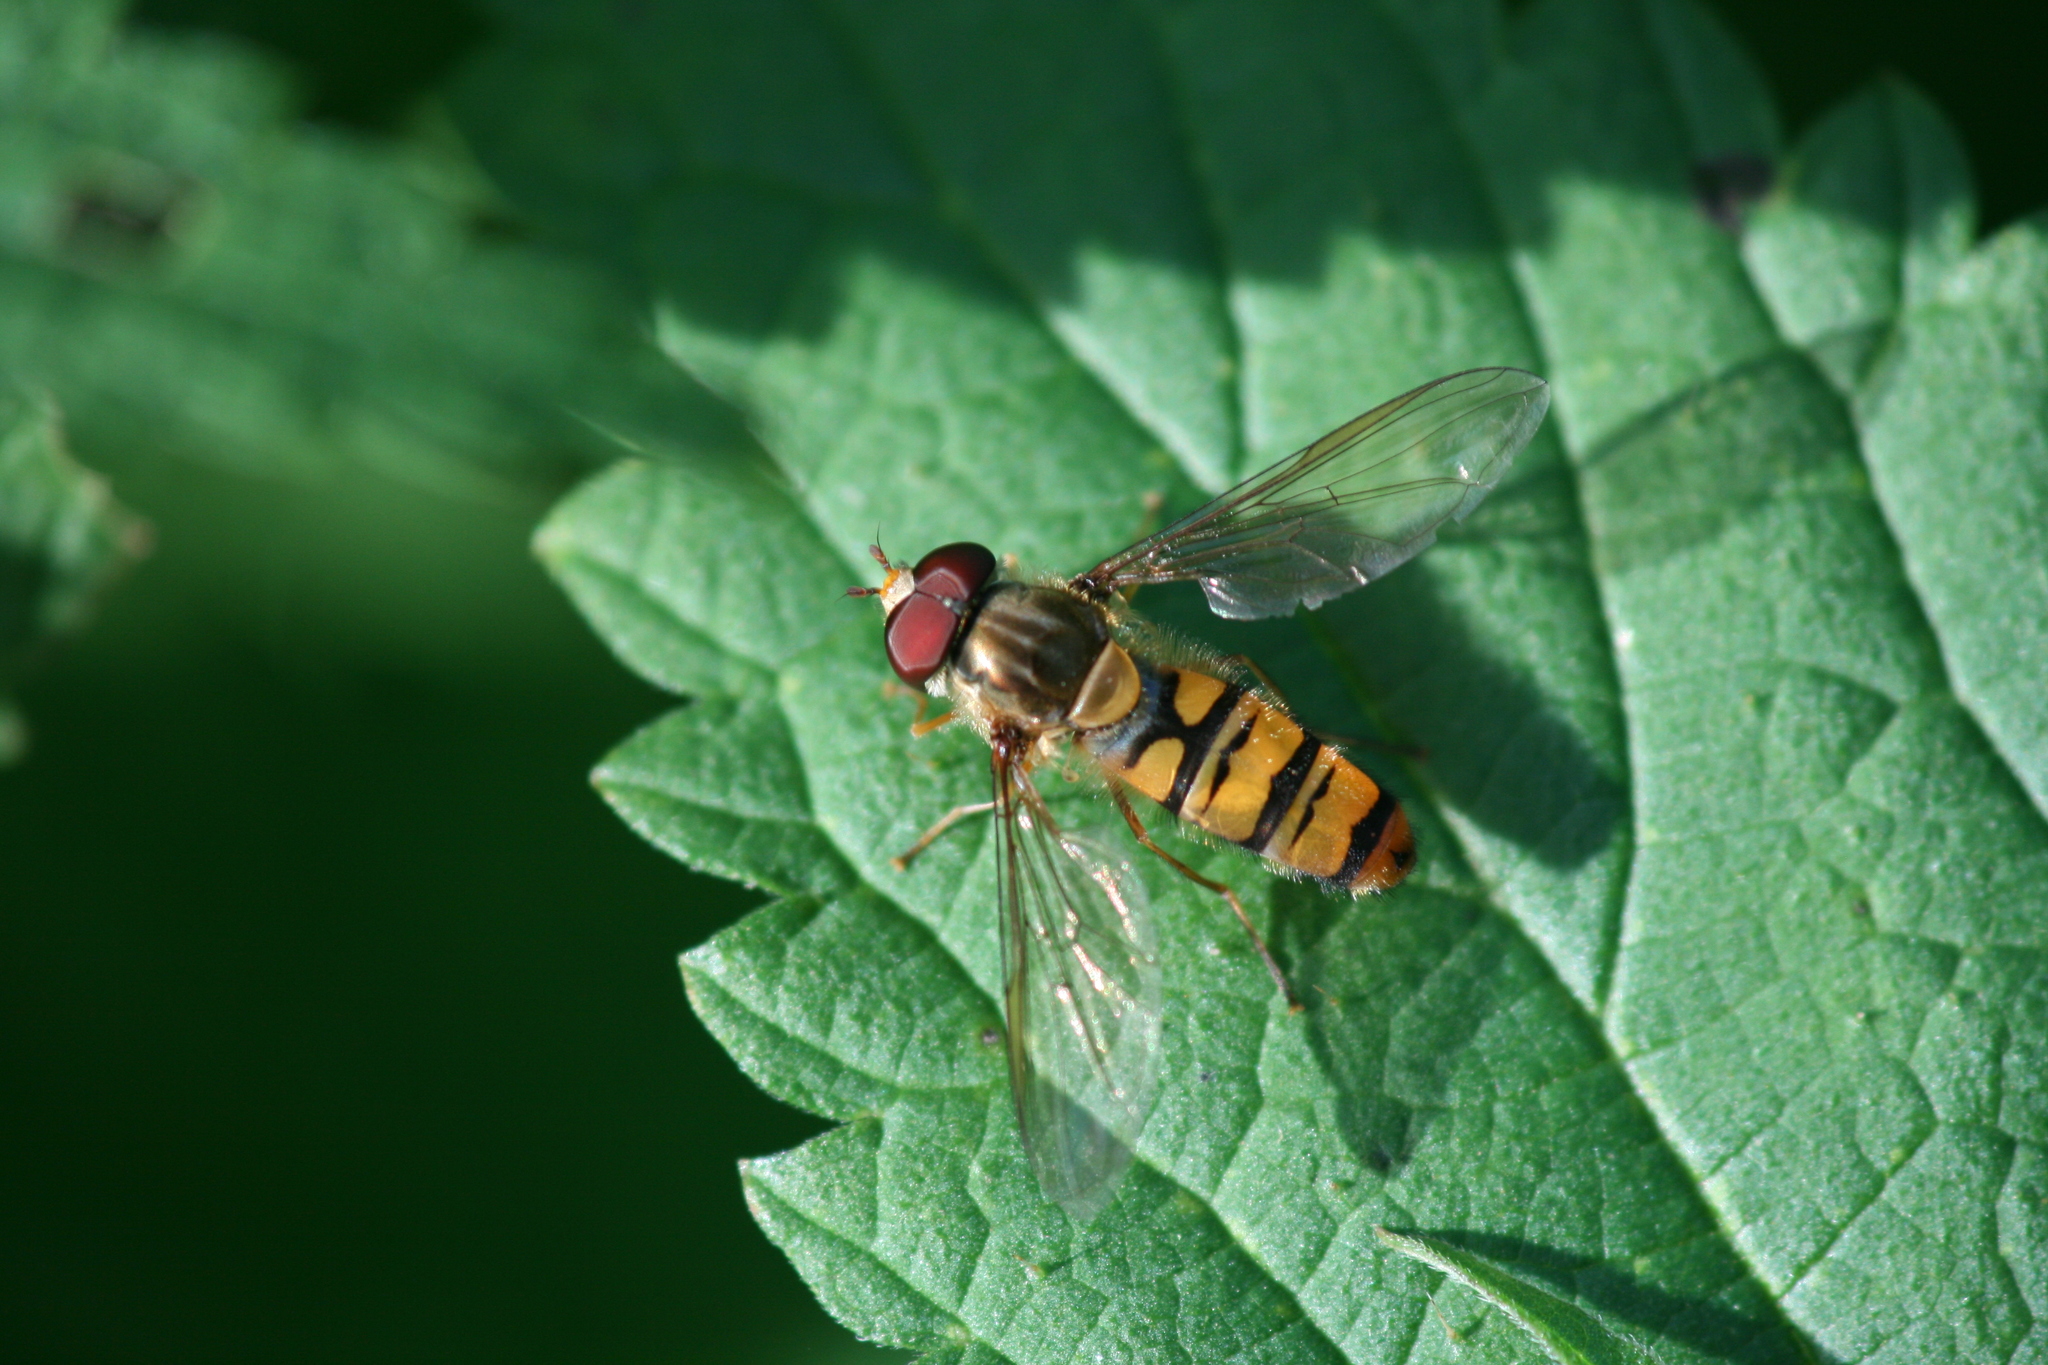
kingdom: Animalia
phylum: Arthropoda
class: Insecta
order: Diptera
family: Syrphidae
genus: Episyrphus
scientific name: Episyrphus balteatus
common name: Marmalade hoverfly
